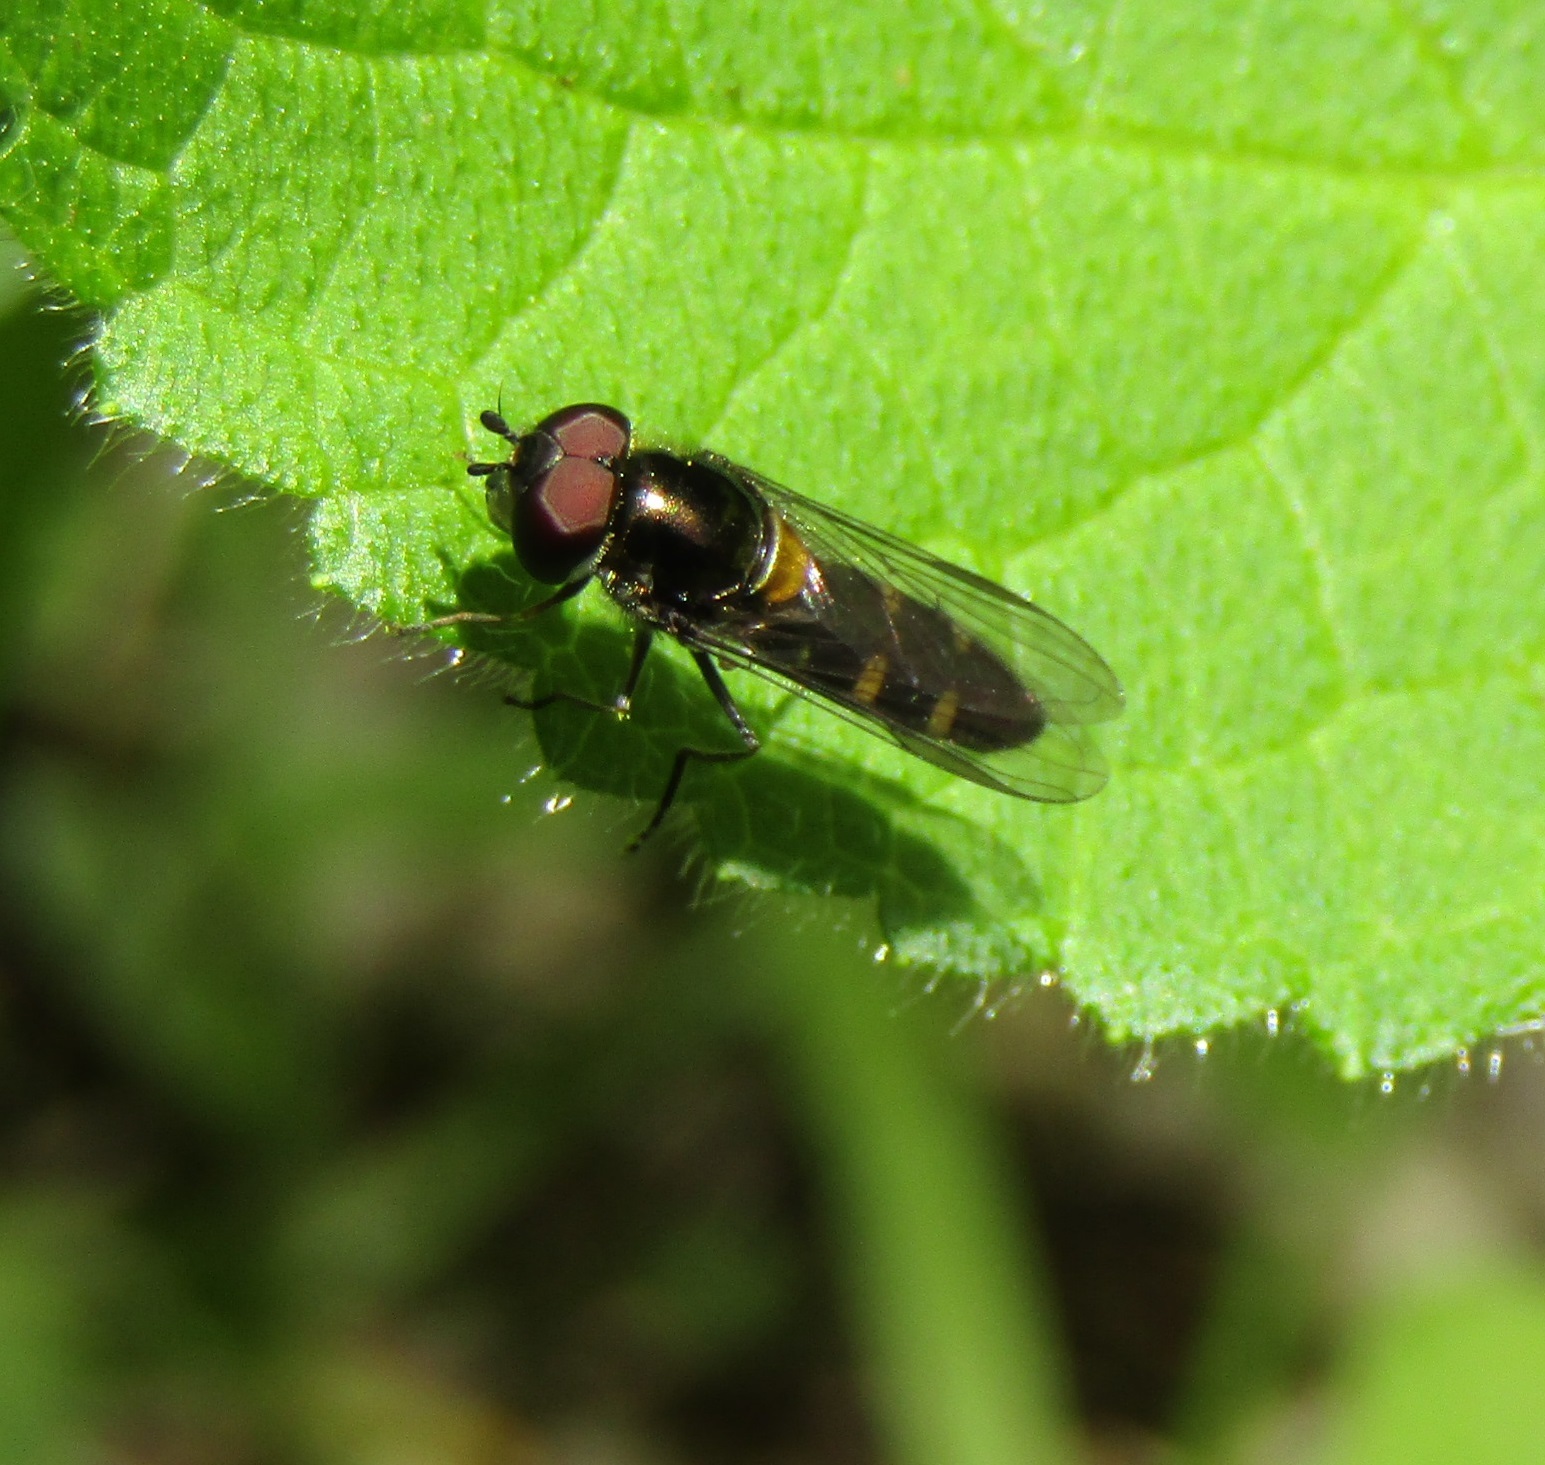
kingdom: Animalia
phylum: Arthropoda
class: Insecta
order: Diptera
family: Syrphidae
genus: Melangyna
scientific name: Melangyna novaezelandiae
